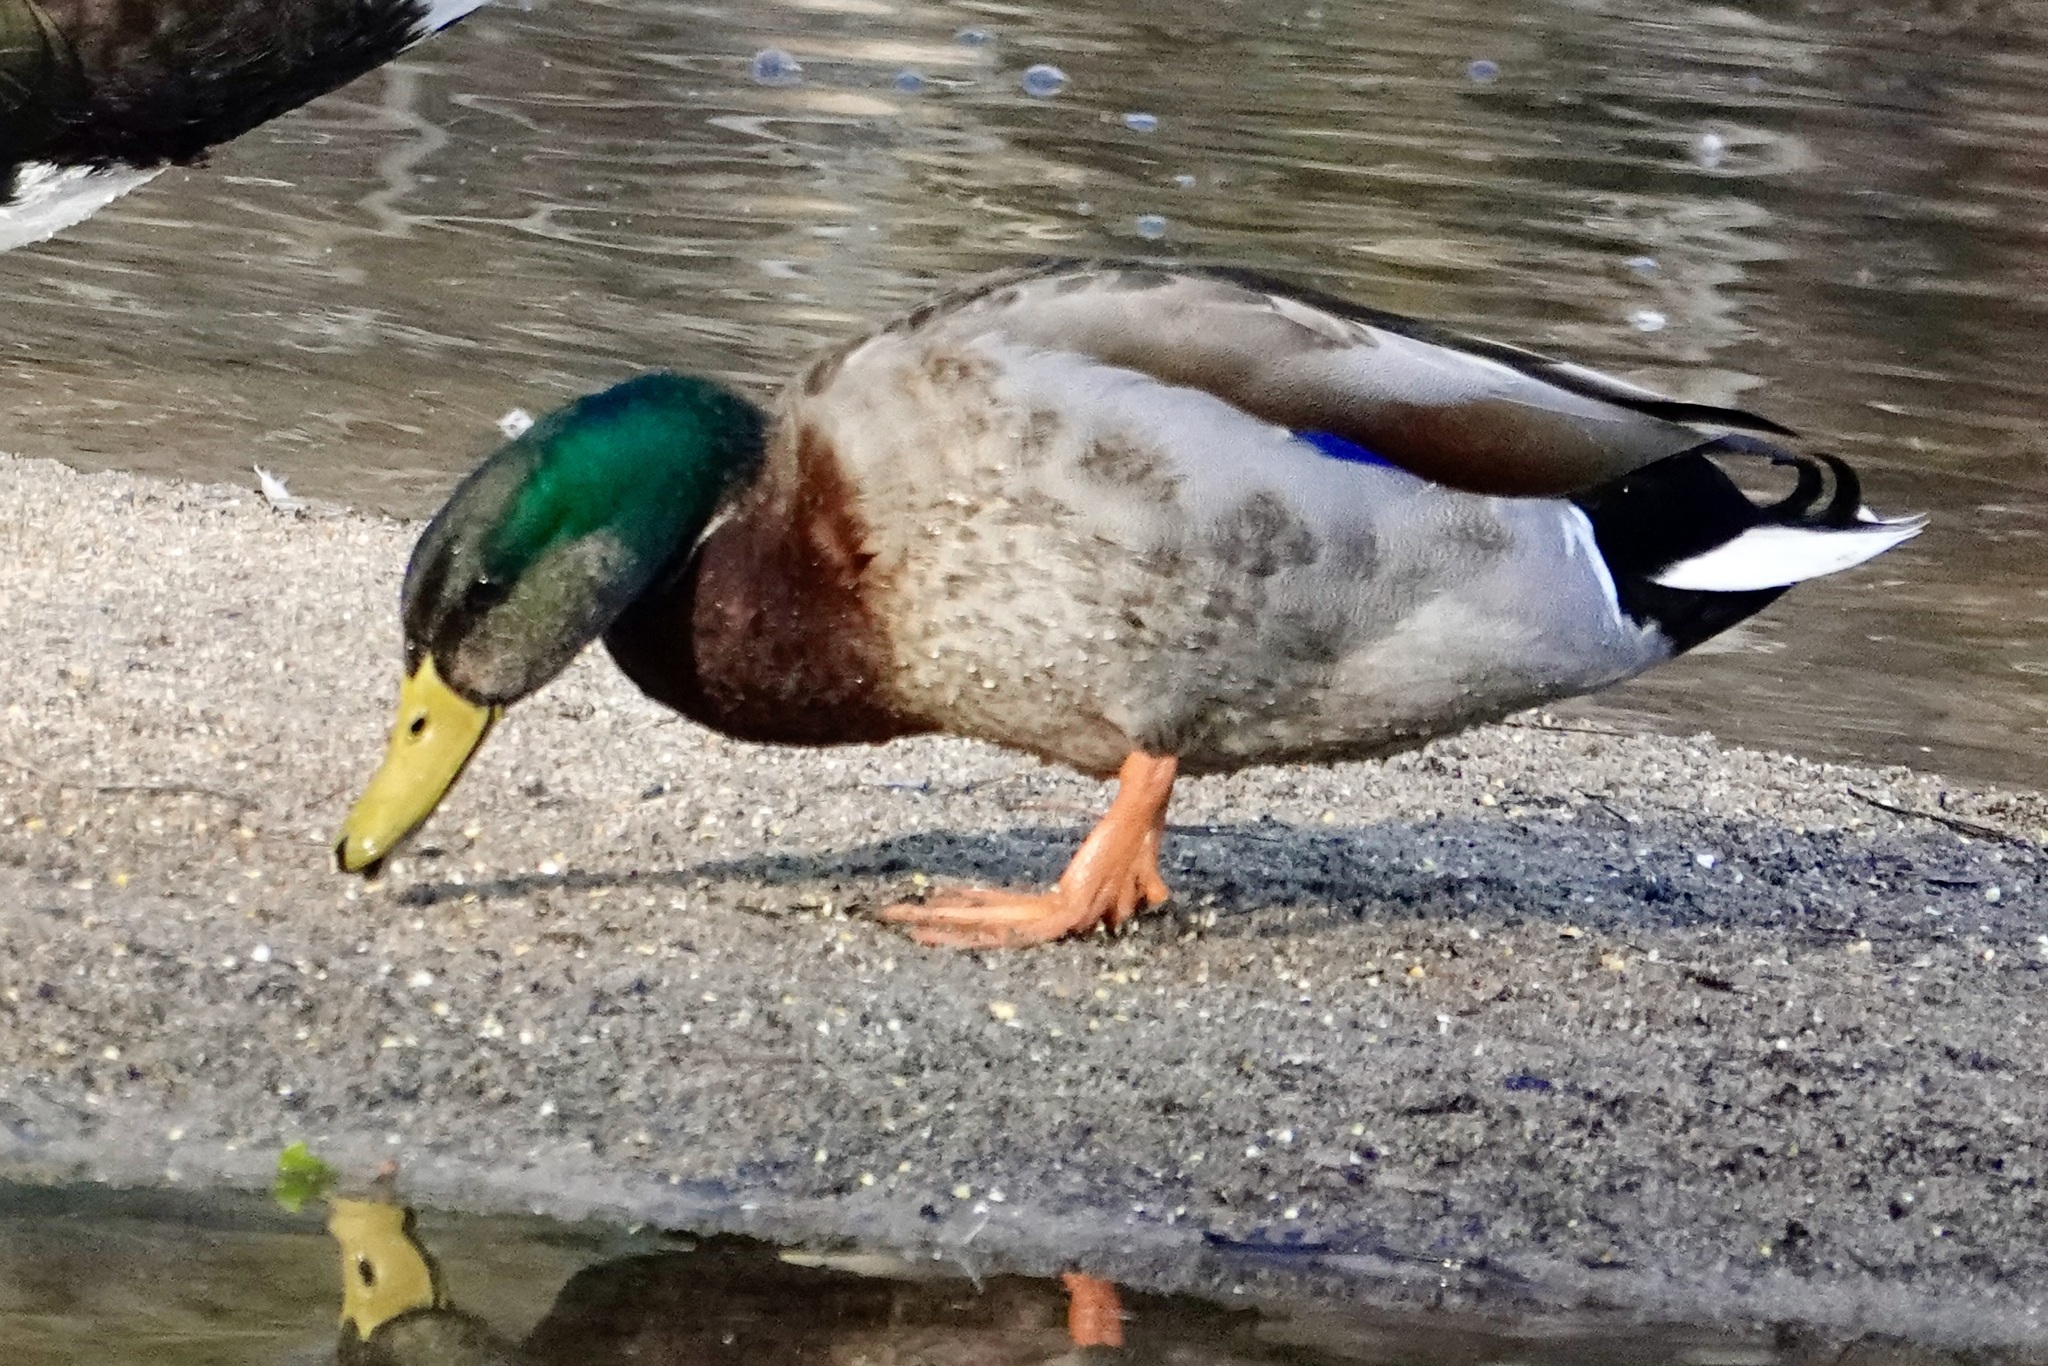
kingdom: Animalia
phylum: Chordata
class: Aves
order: Anseriformes
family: Anatidae
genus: Anas
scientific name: Anas platyrhynchos
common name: Mallard
